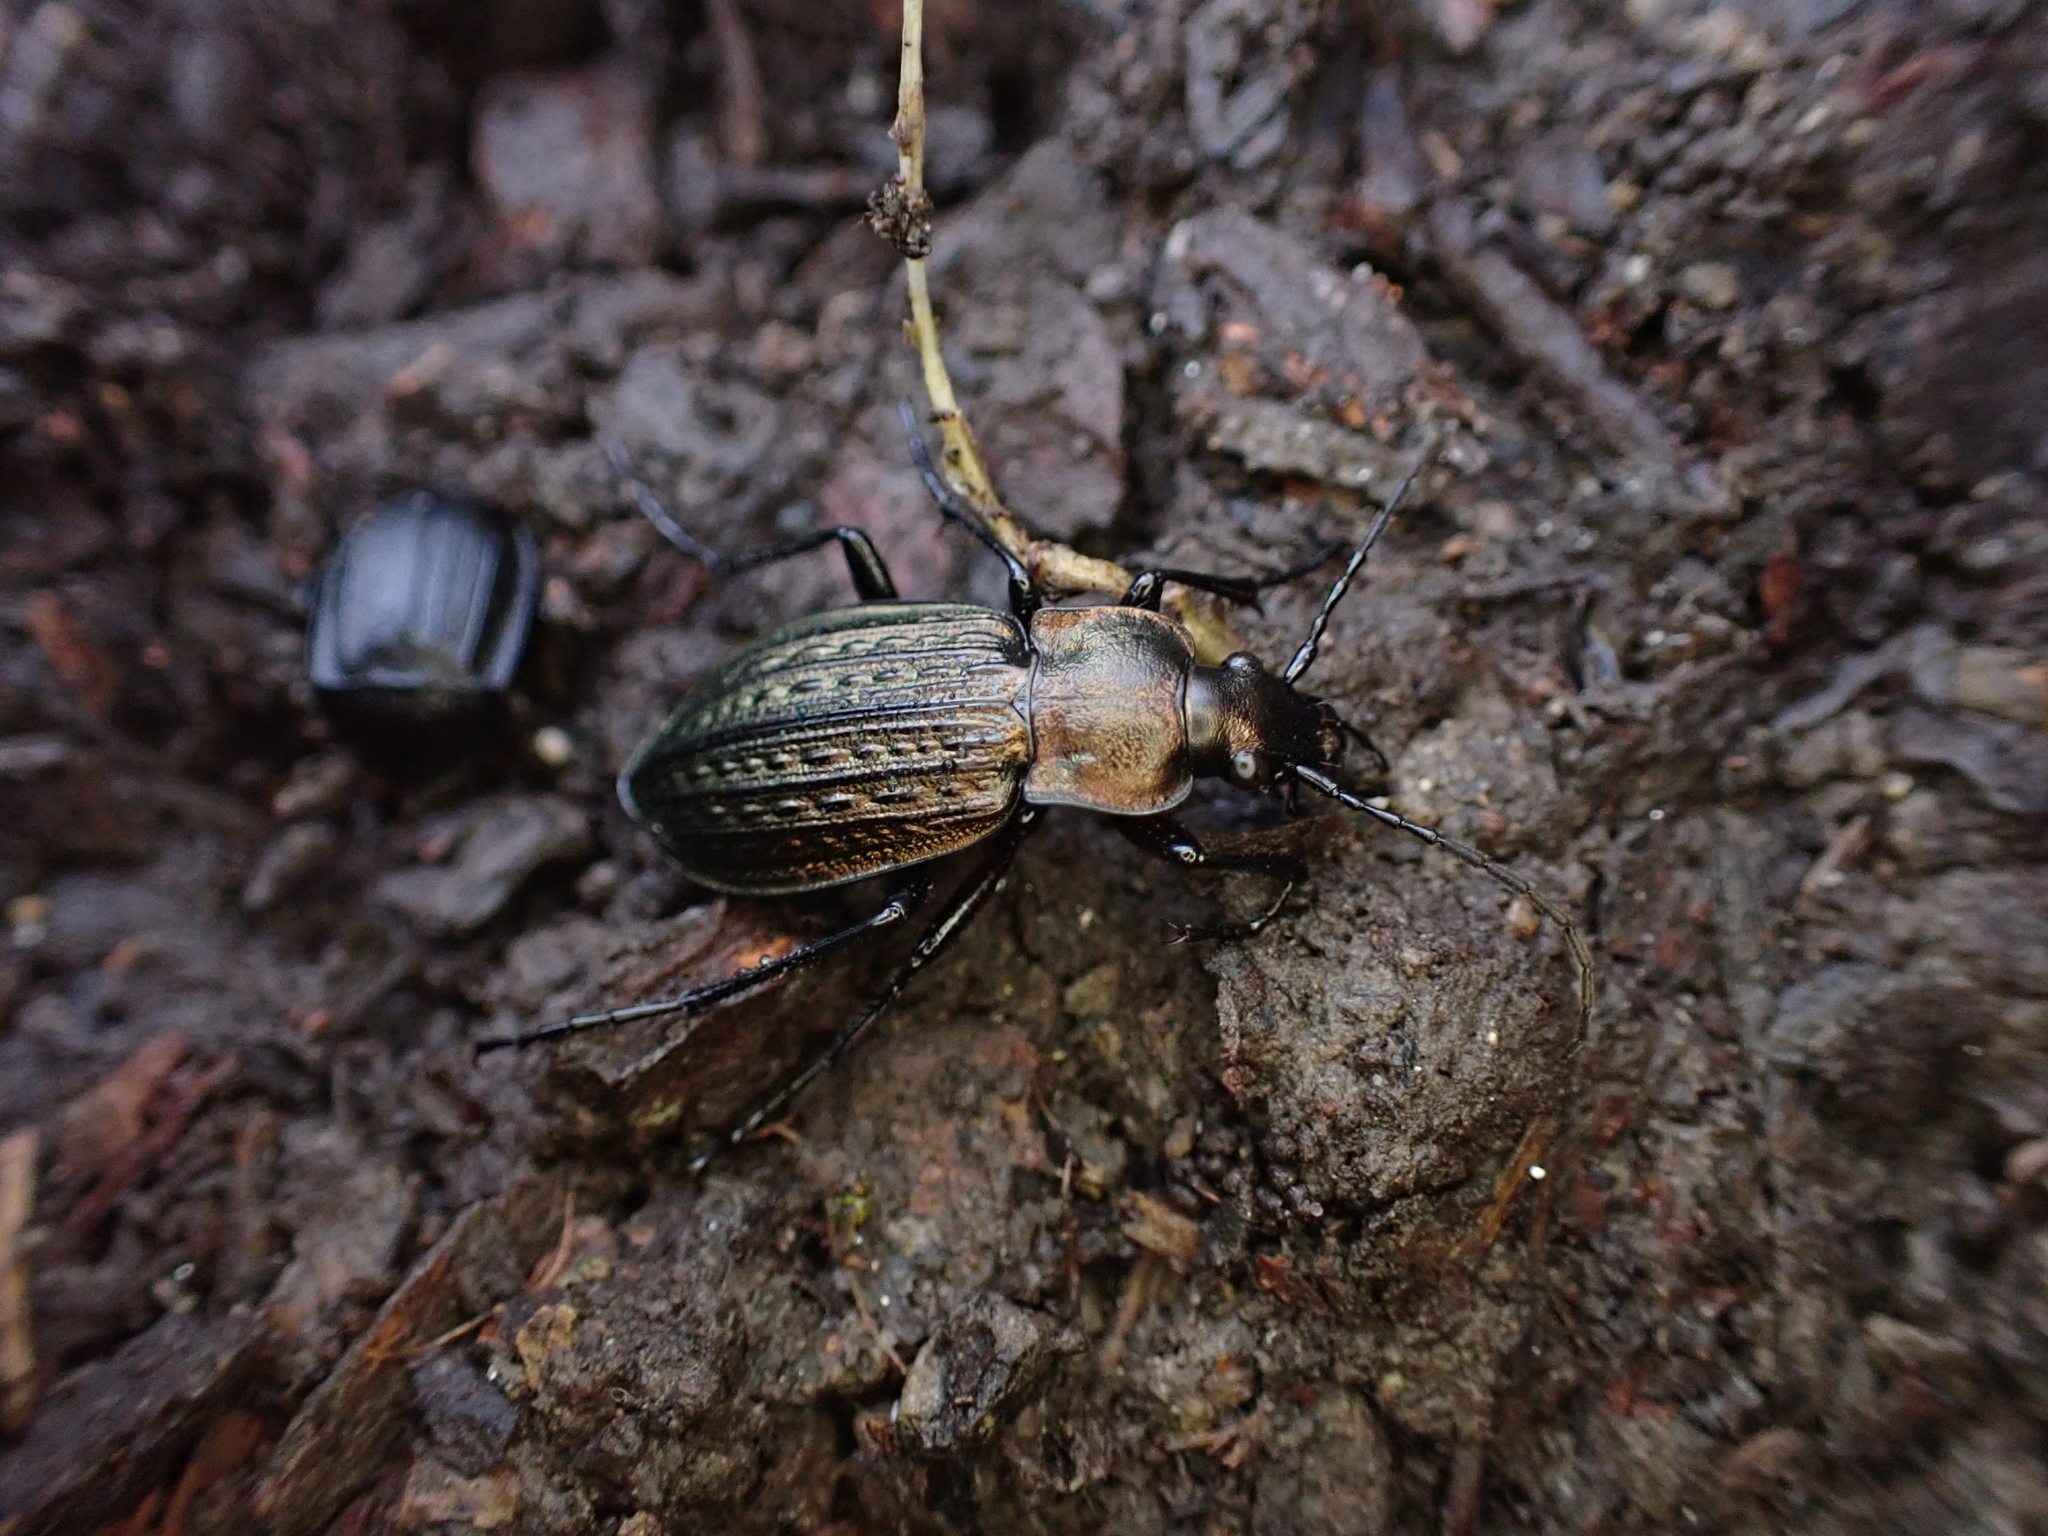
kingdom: Animalia
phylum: Arthropoda
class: Insecta
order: Coleoptera
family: Carabidae
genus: Carabus
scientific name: Carabus granulatus
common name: Granulate ground beetle
